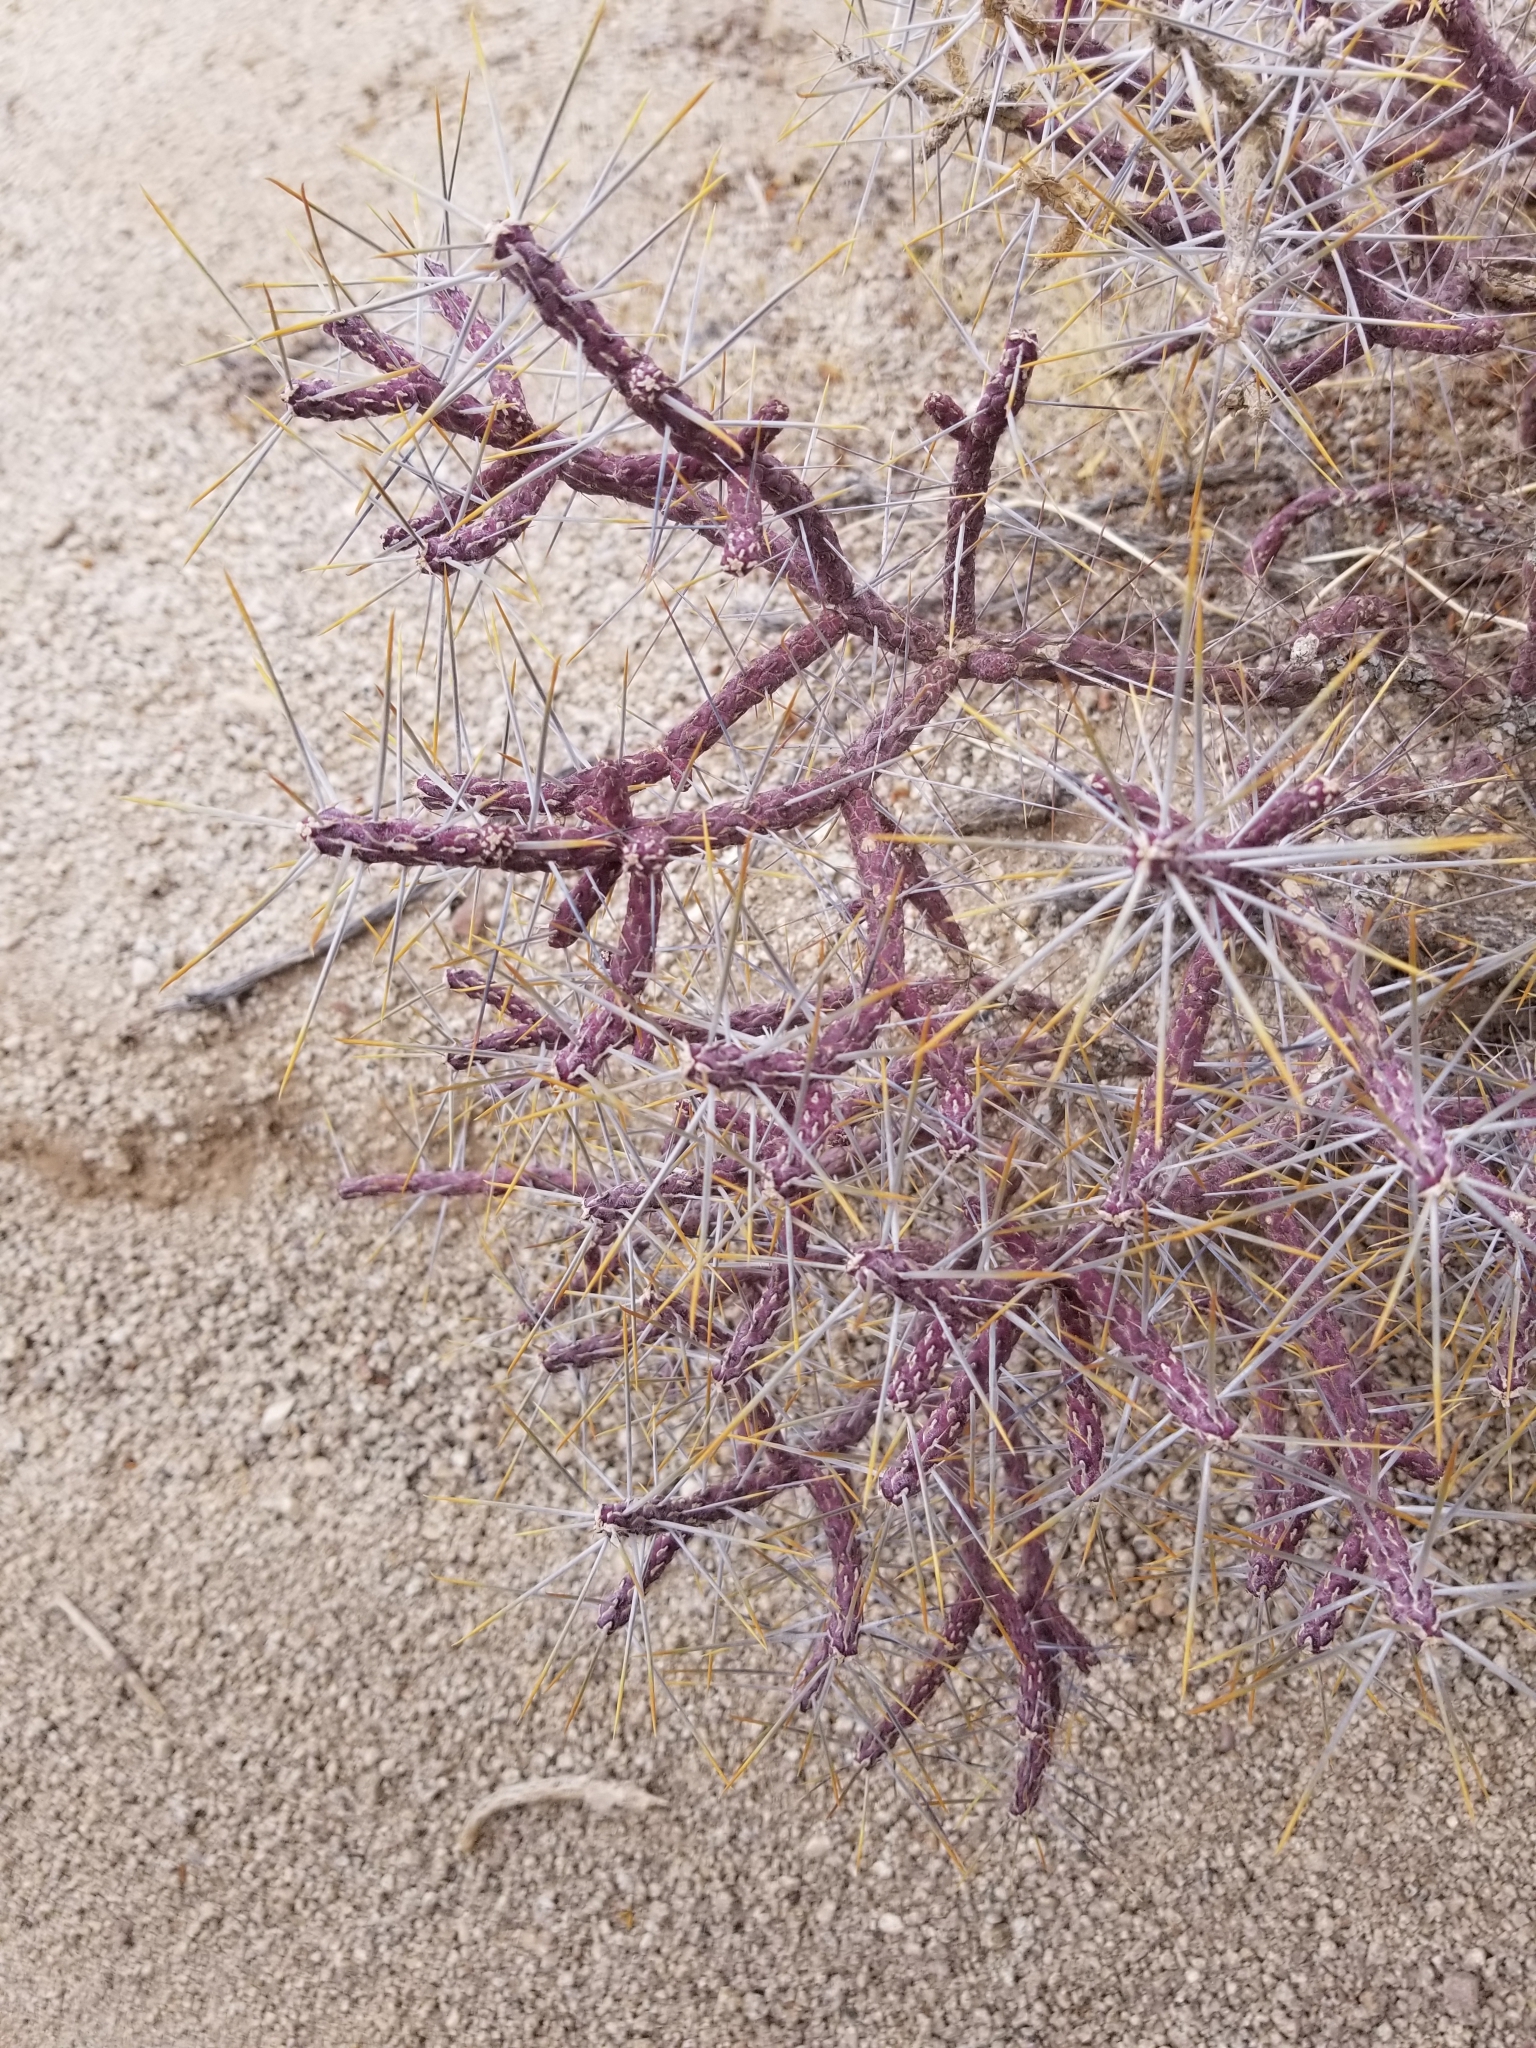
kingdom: Plantae
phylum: Tracheophyta
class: Magnoliopsida
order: Caryophyllales
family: Cactaceae
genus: Cylindropuntia
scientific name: Cylindropuntia ramosissima
